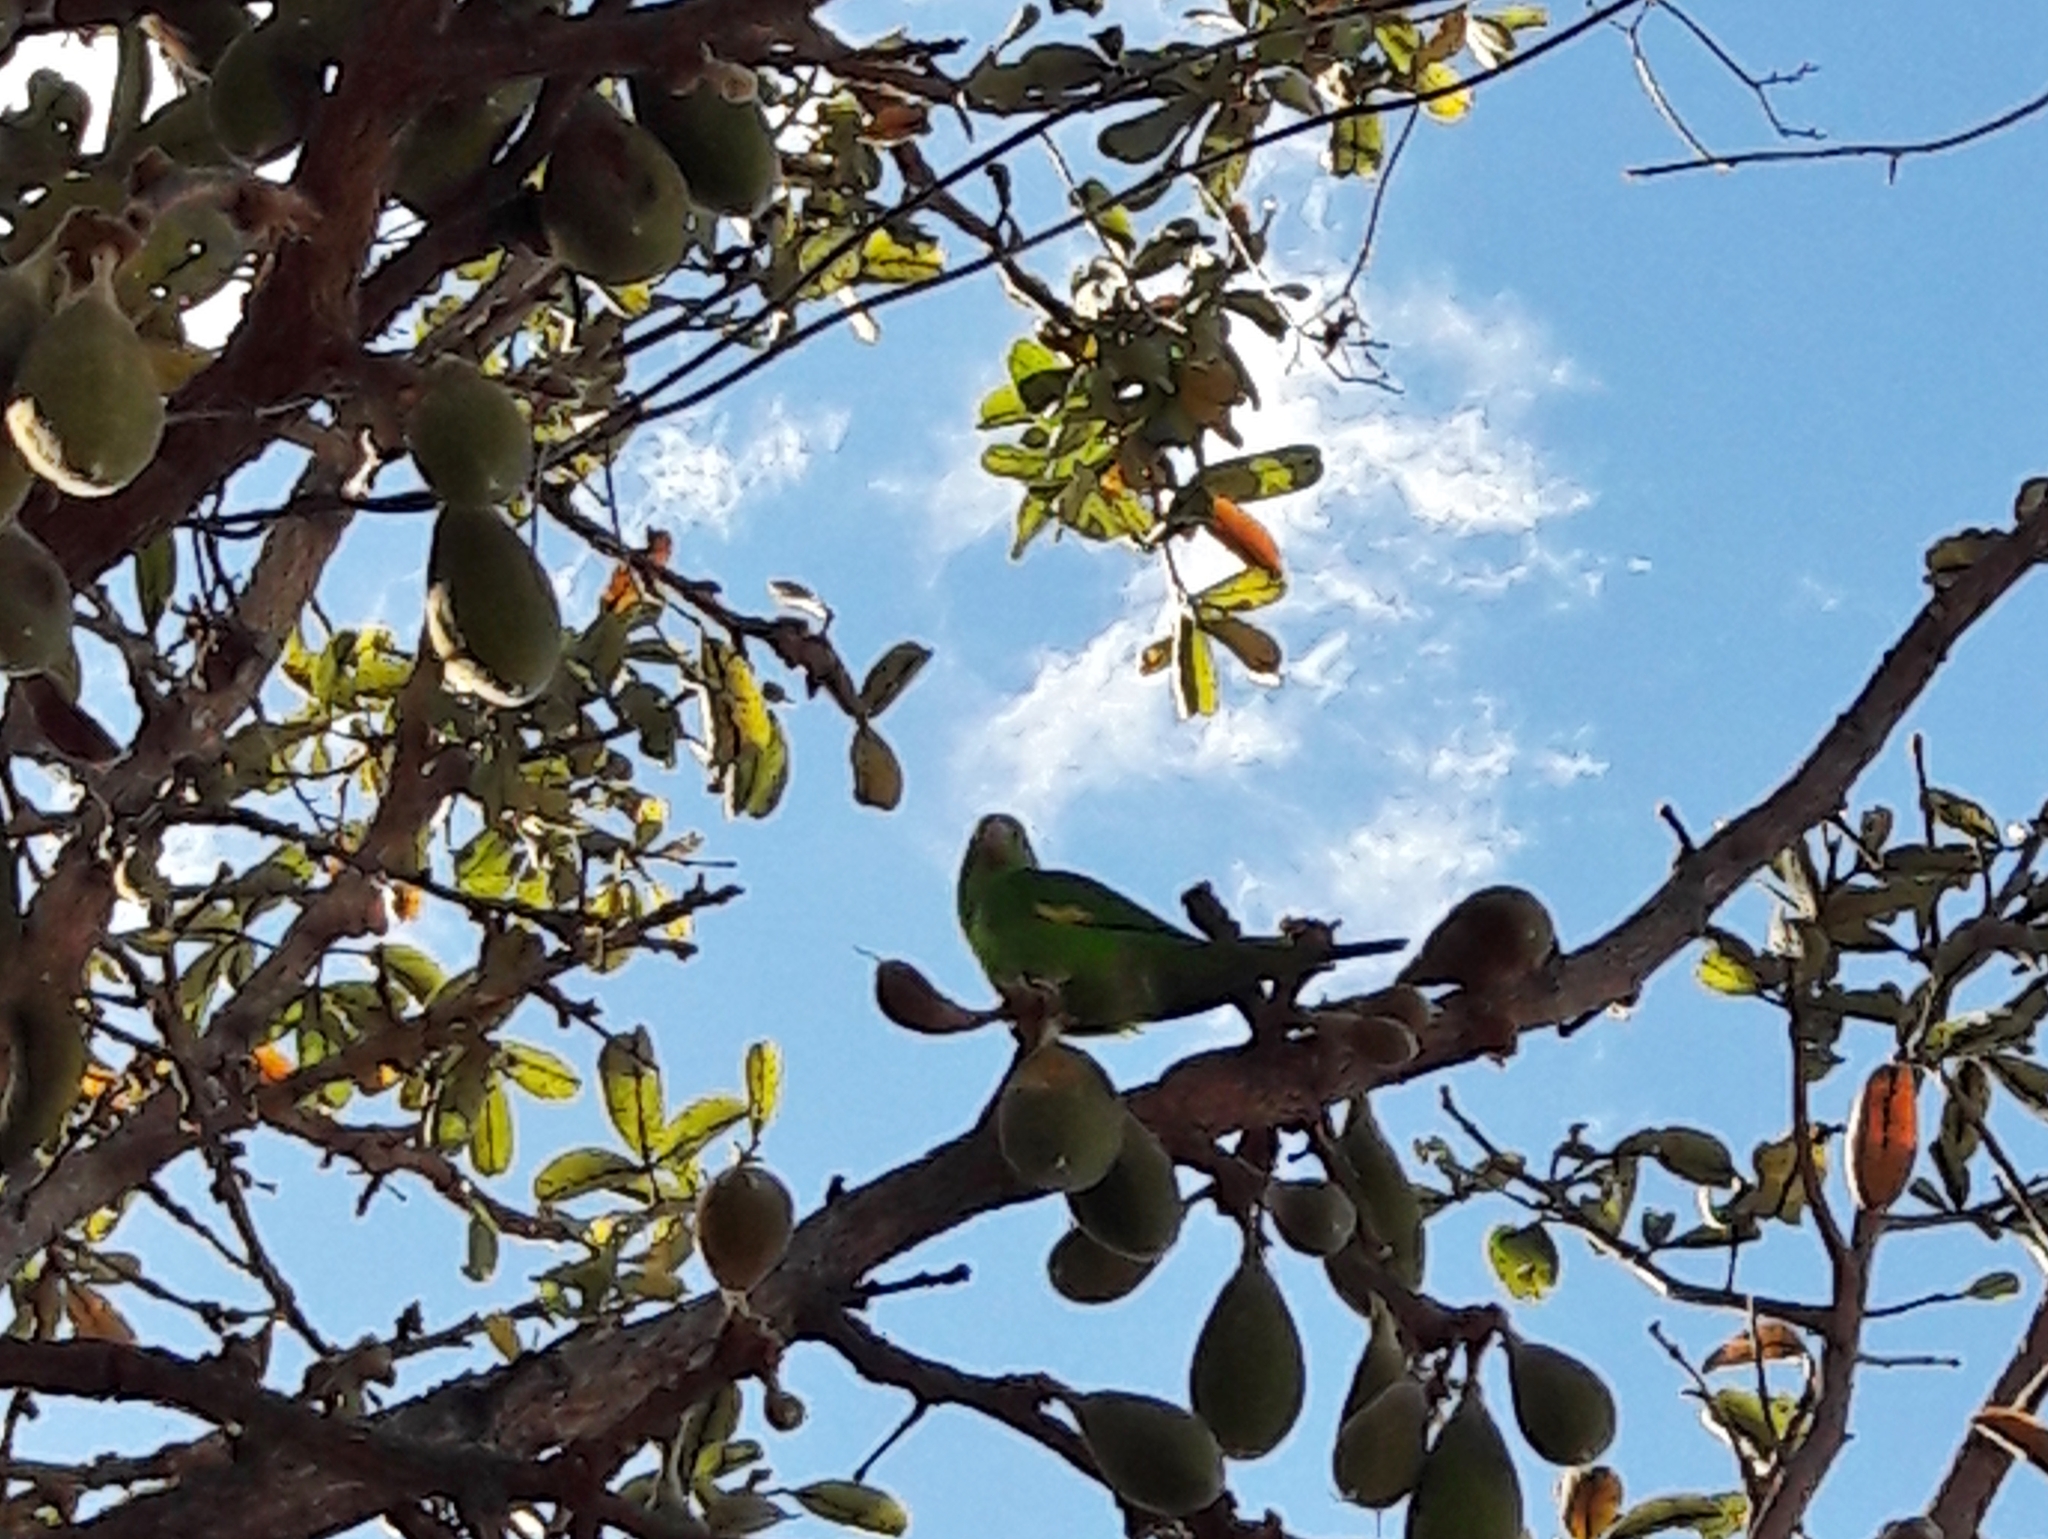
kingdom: Animalia
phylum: Chordata
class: Aves
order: Psittaciformes
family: Psittacidae
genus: Brotogeris
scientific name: Brotogeris chiriri
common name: Yellow-chevroned parakeet
